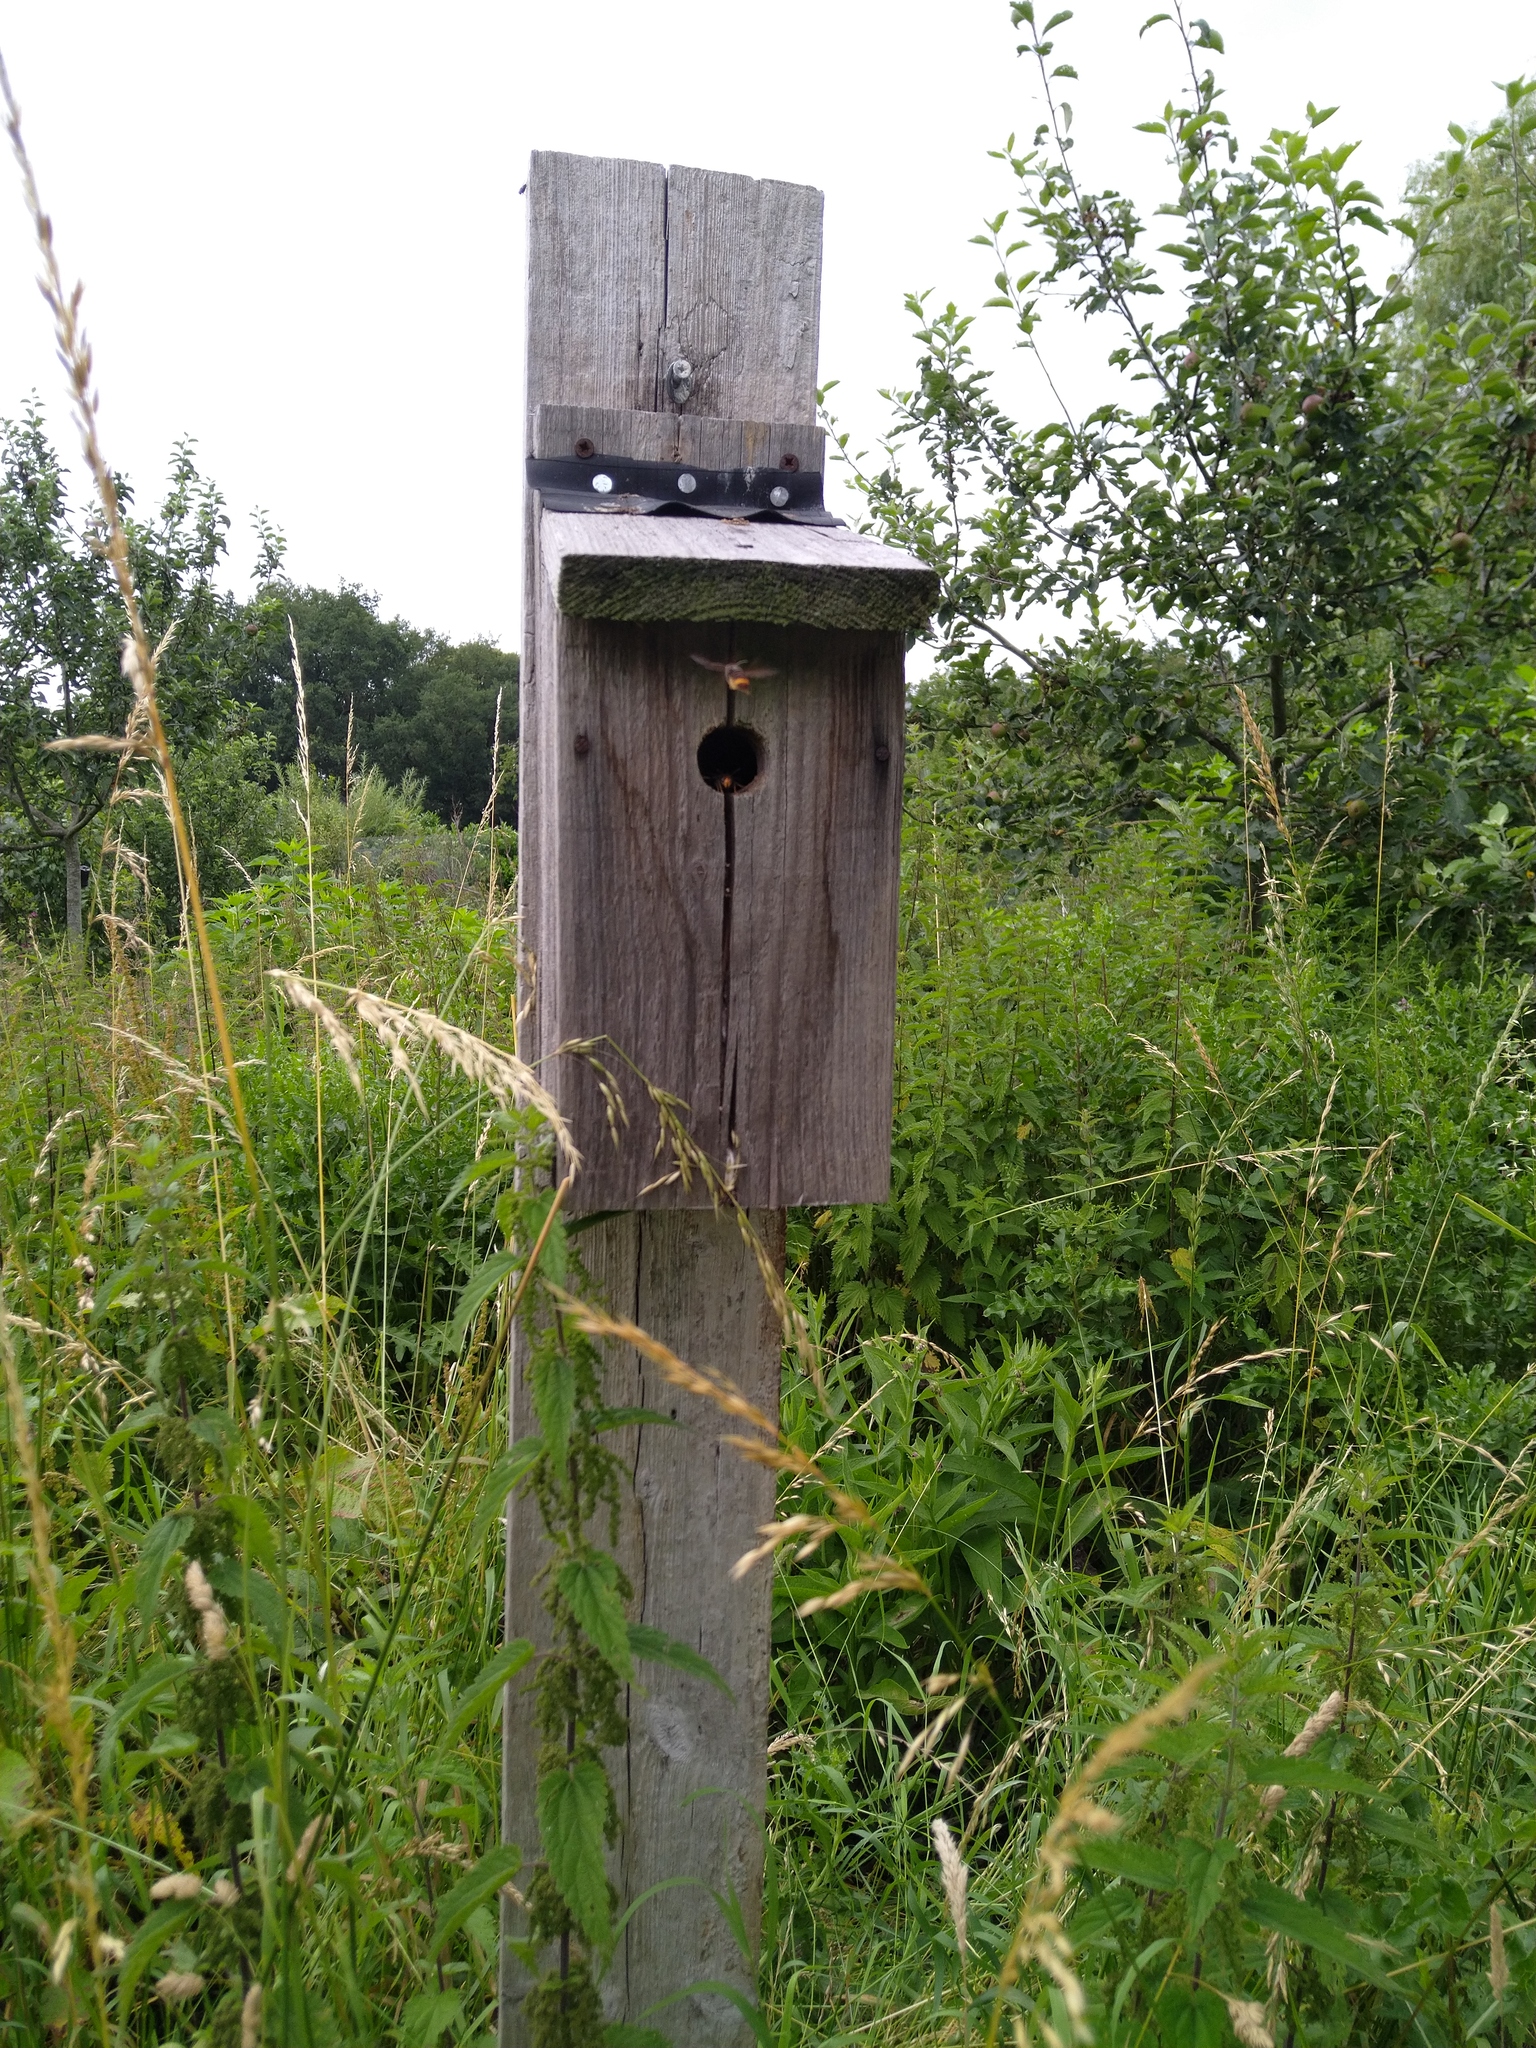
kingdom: Animalia
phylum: Arthropoda
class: Insecta
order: Hymenoptera
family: Vespidae
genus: Vespa
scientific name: Vespa velutina
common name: Asian hornet
